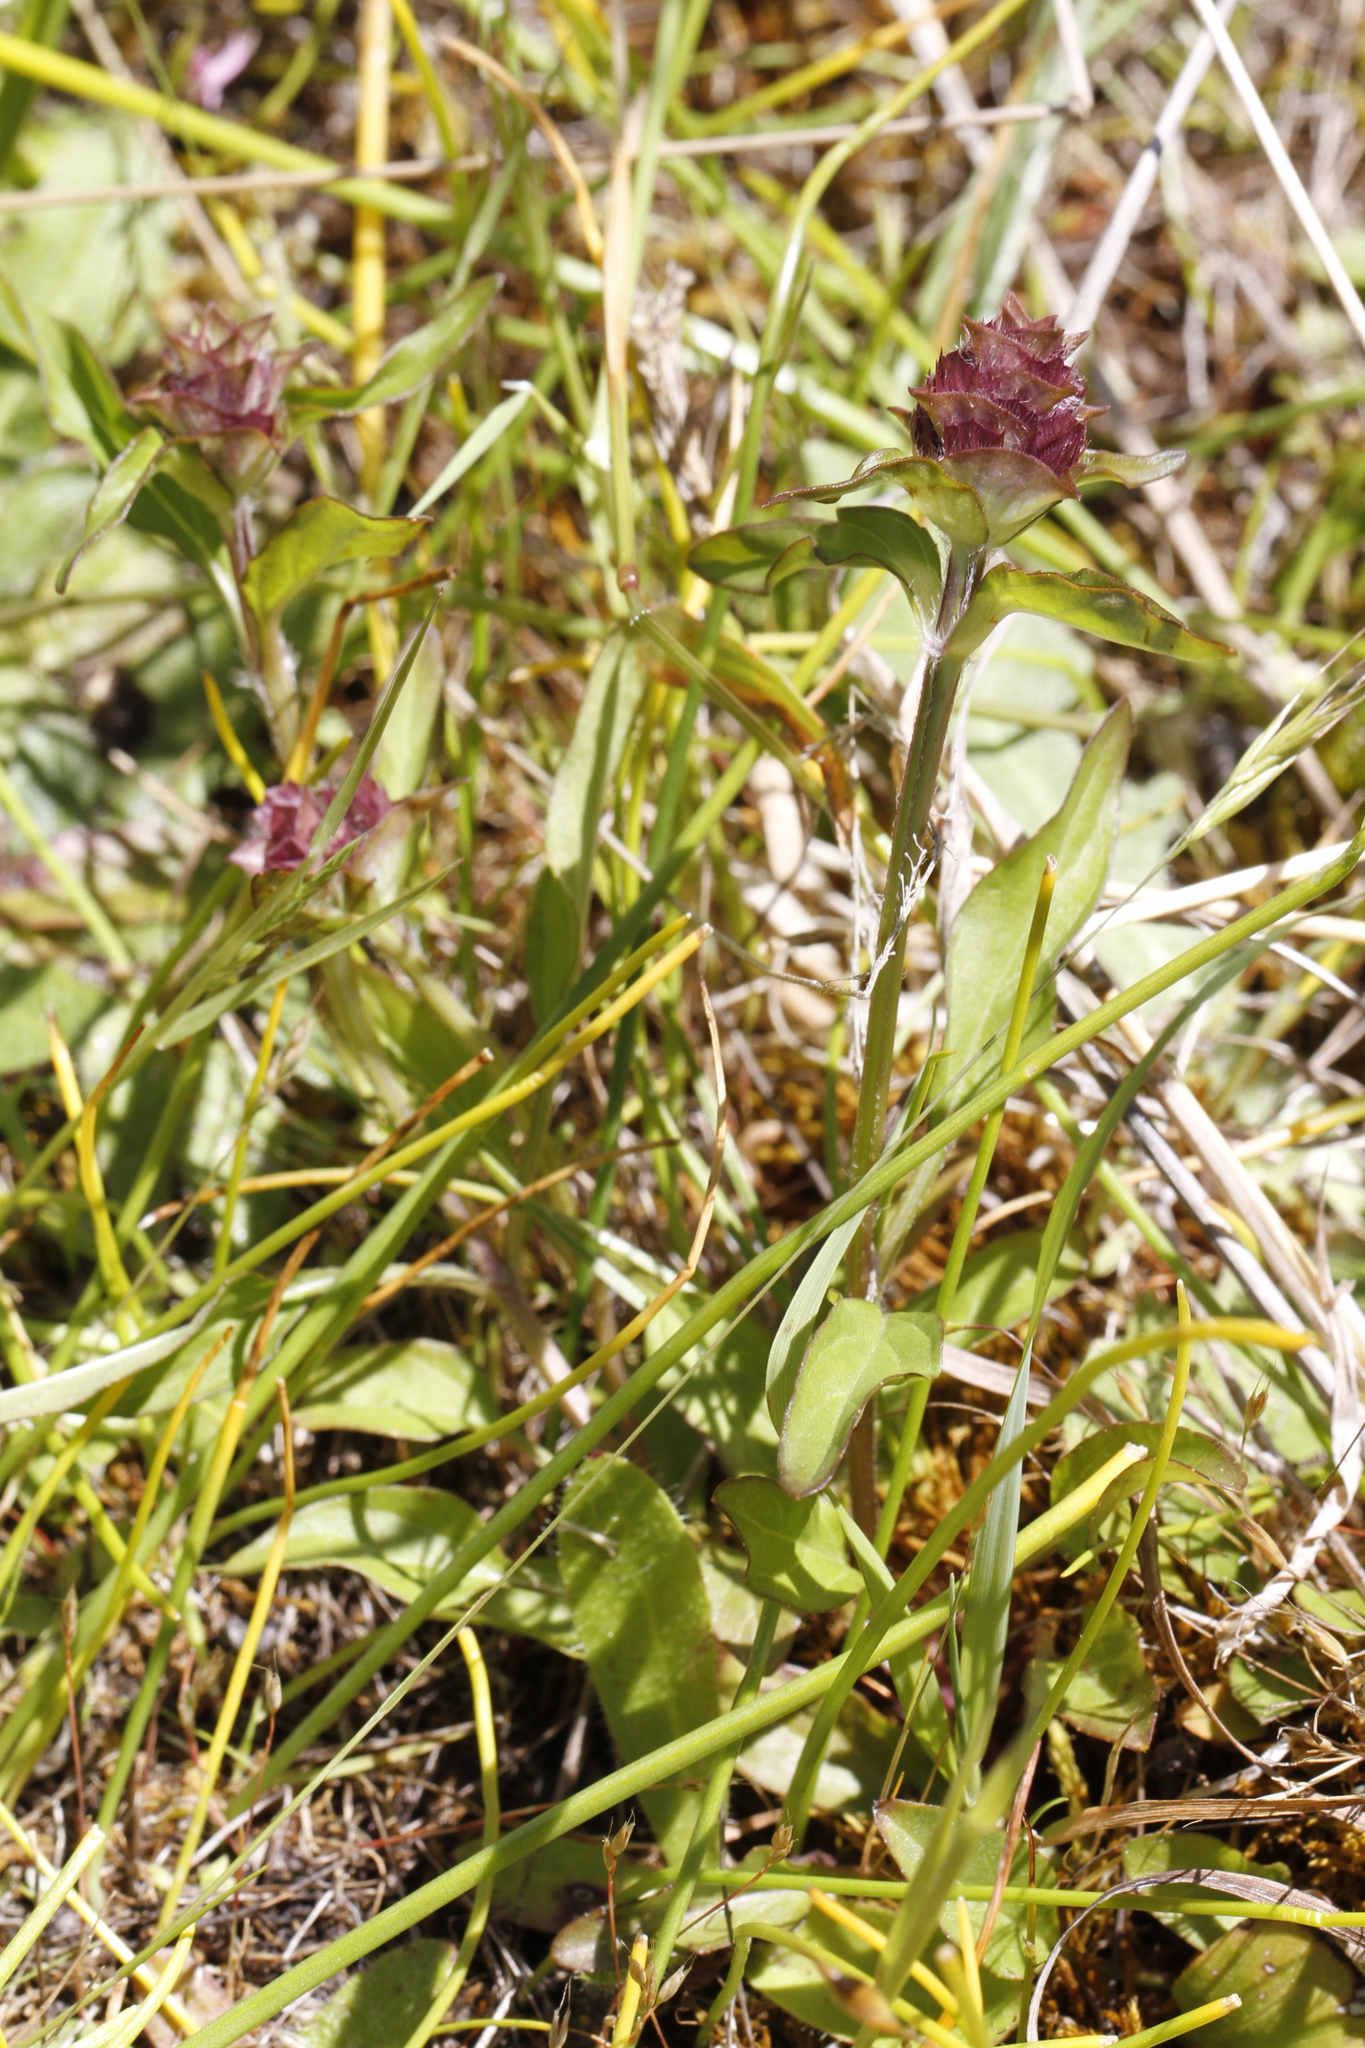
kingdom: Plantae
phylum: Tracheophyta
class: Magnoliopsida
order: Lamiales
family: Lamiaceae
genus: Prunella
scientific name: Prunella vulgaris
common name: Heal-all
